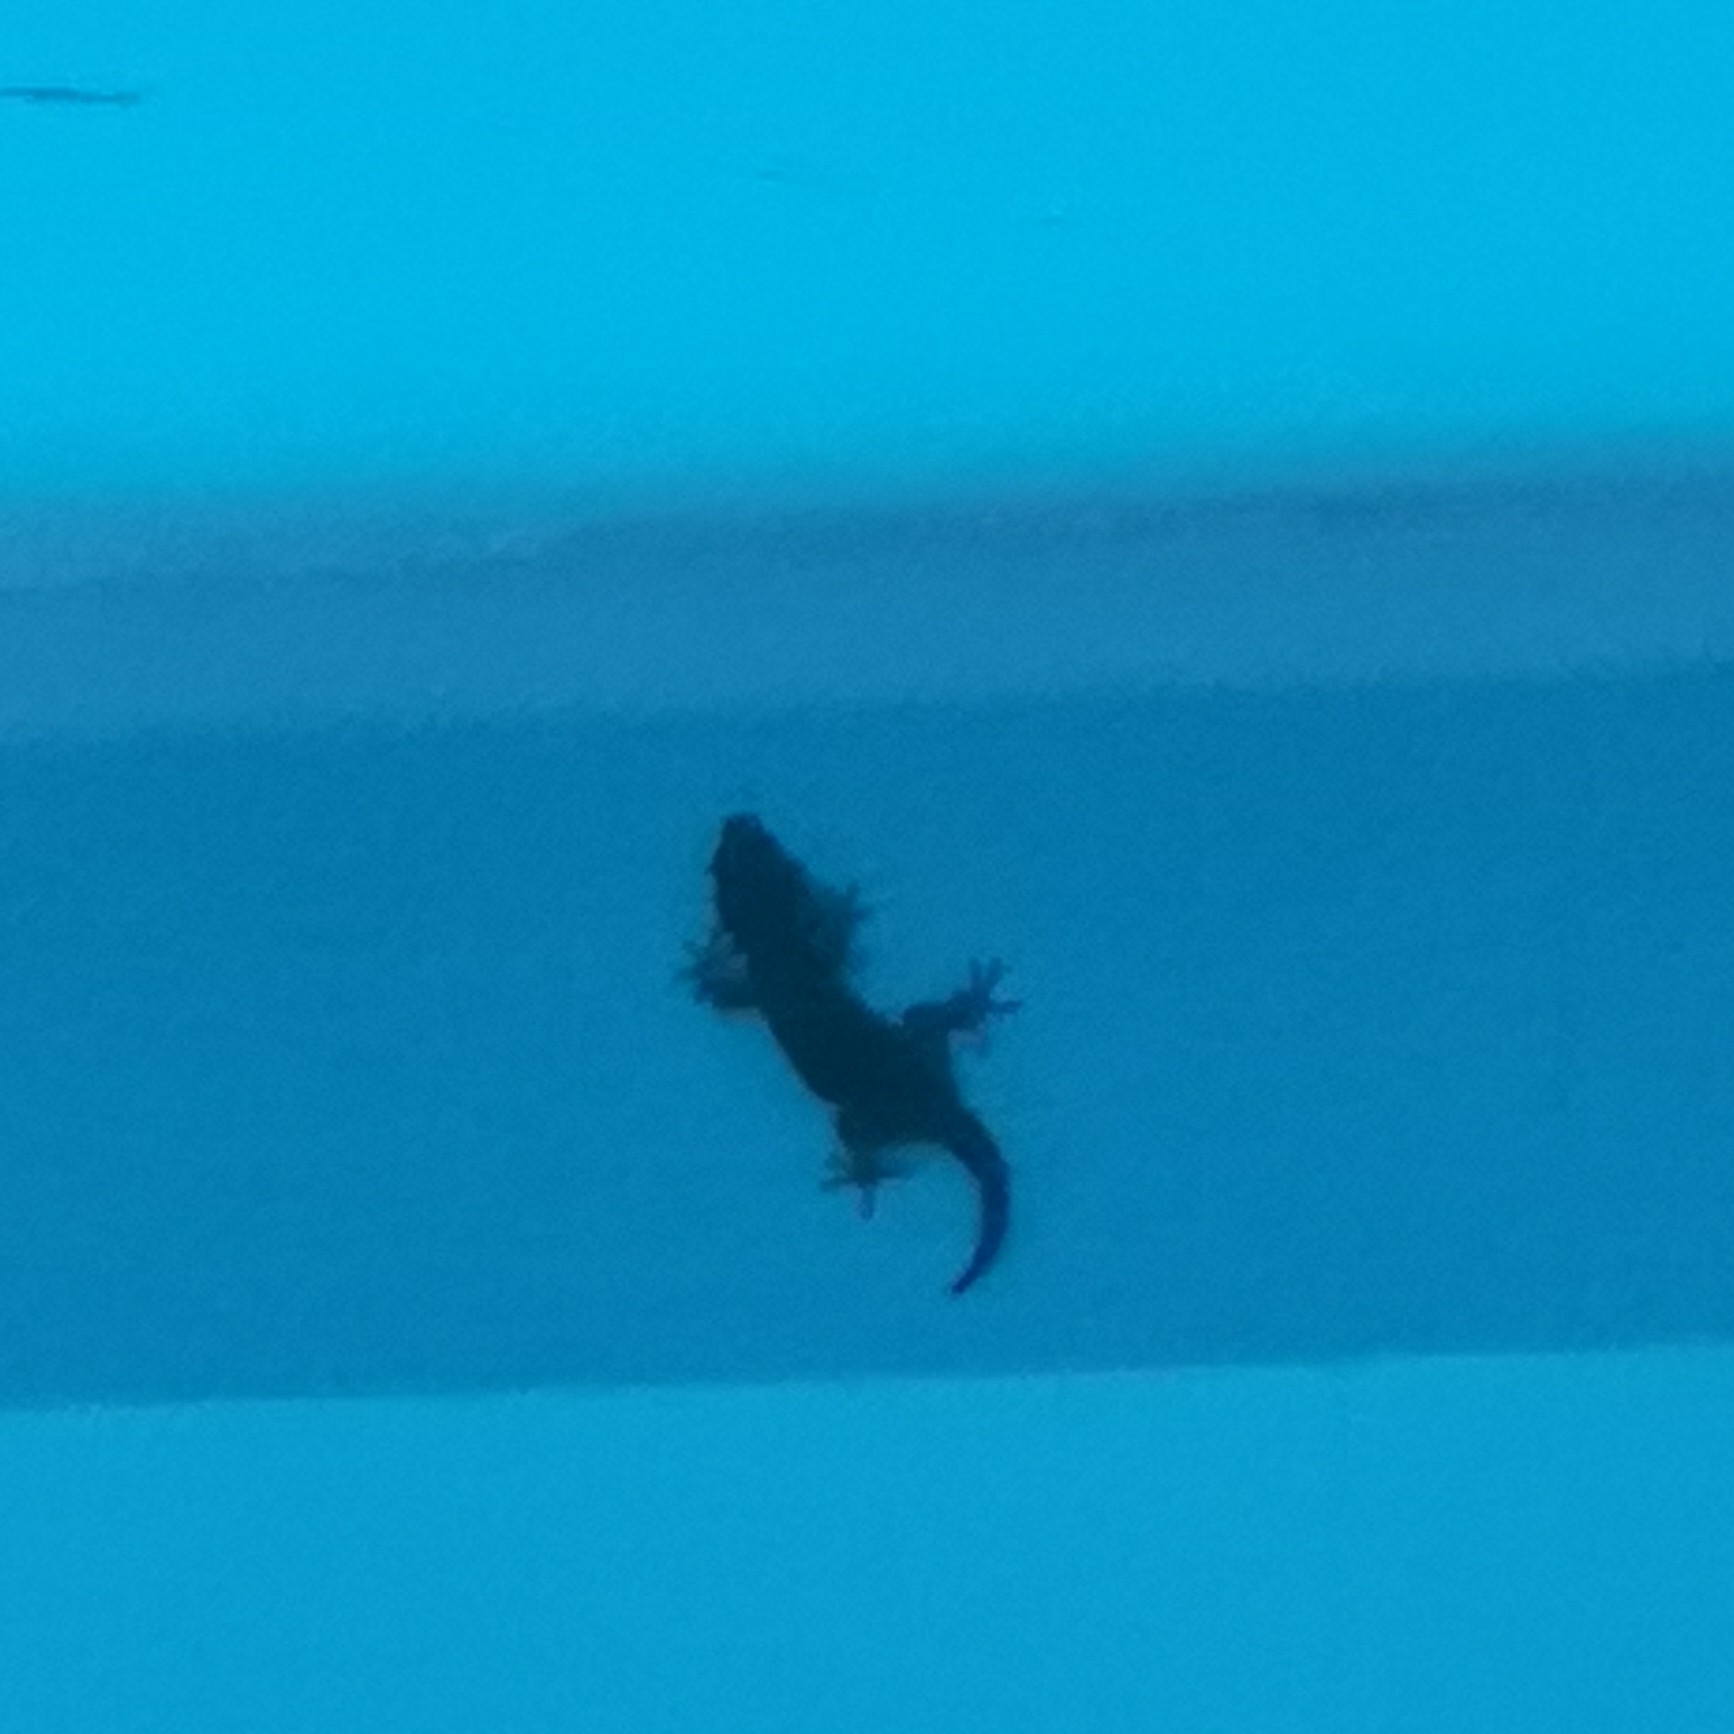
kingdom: Animalia
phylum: Chordata
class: Squamata
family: Phyllodactylidae
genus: Tarentola
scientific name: Tarentola delalandii
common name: Tenerife wall gecko
